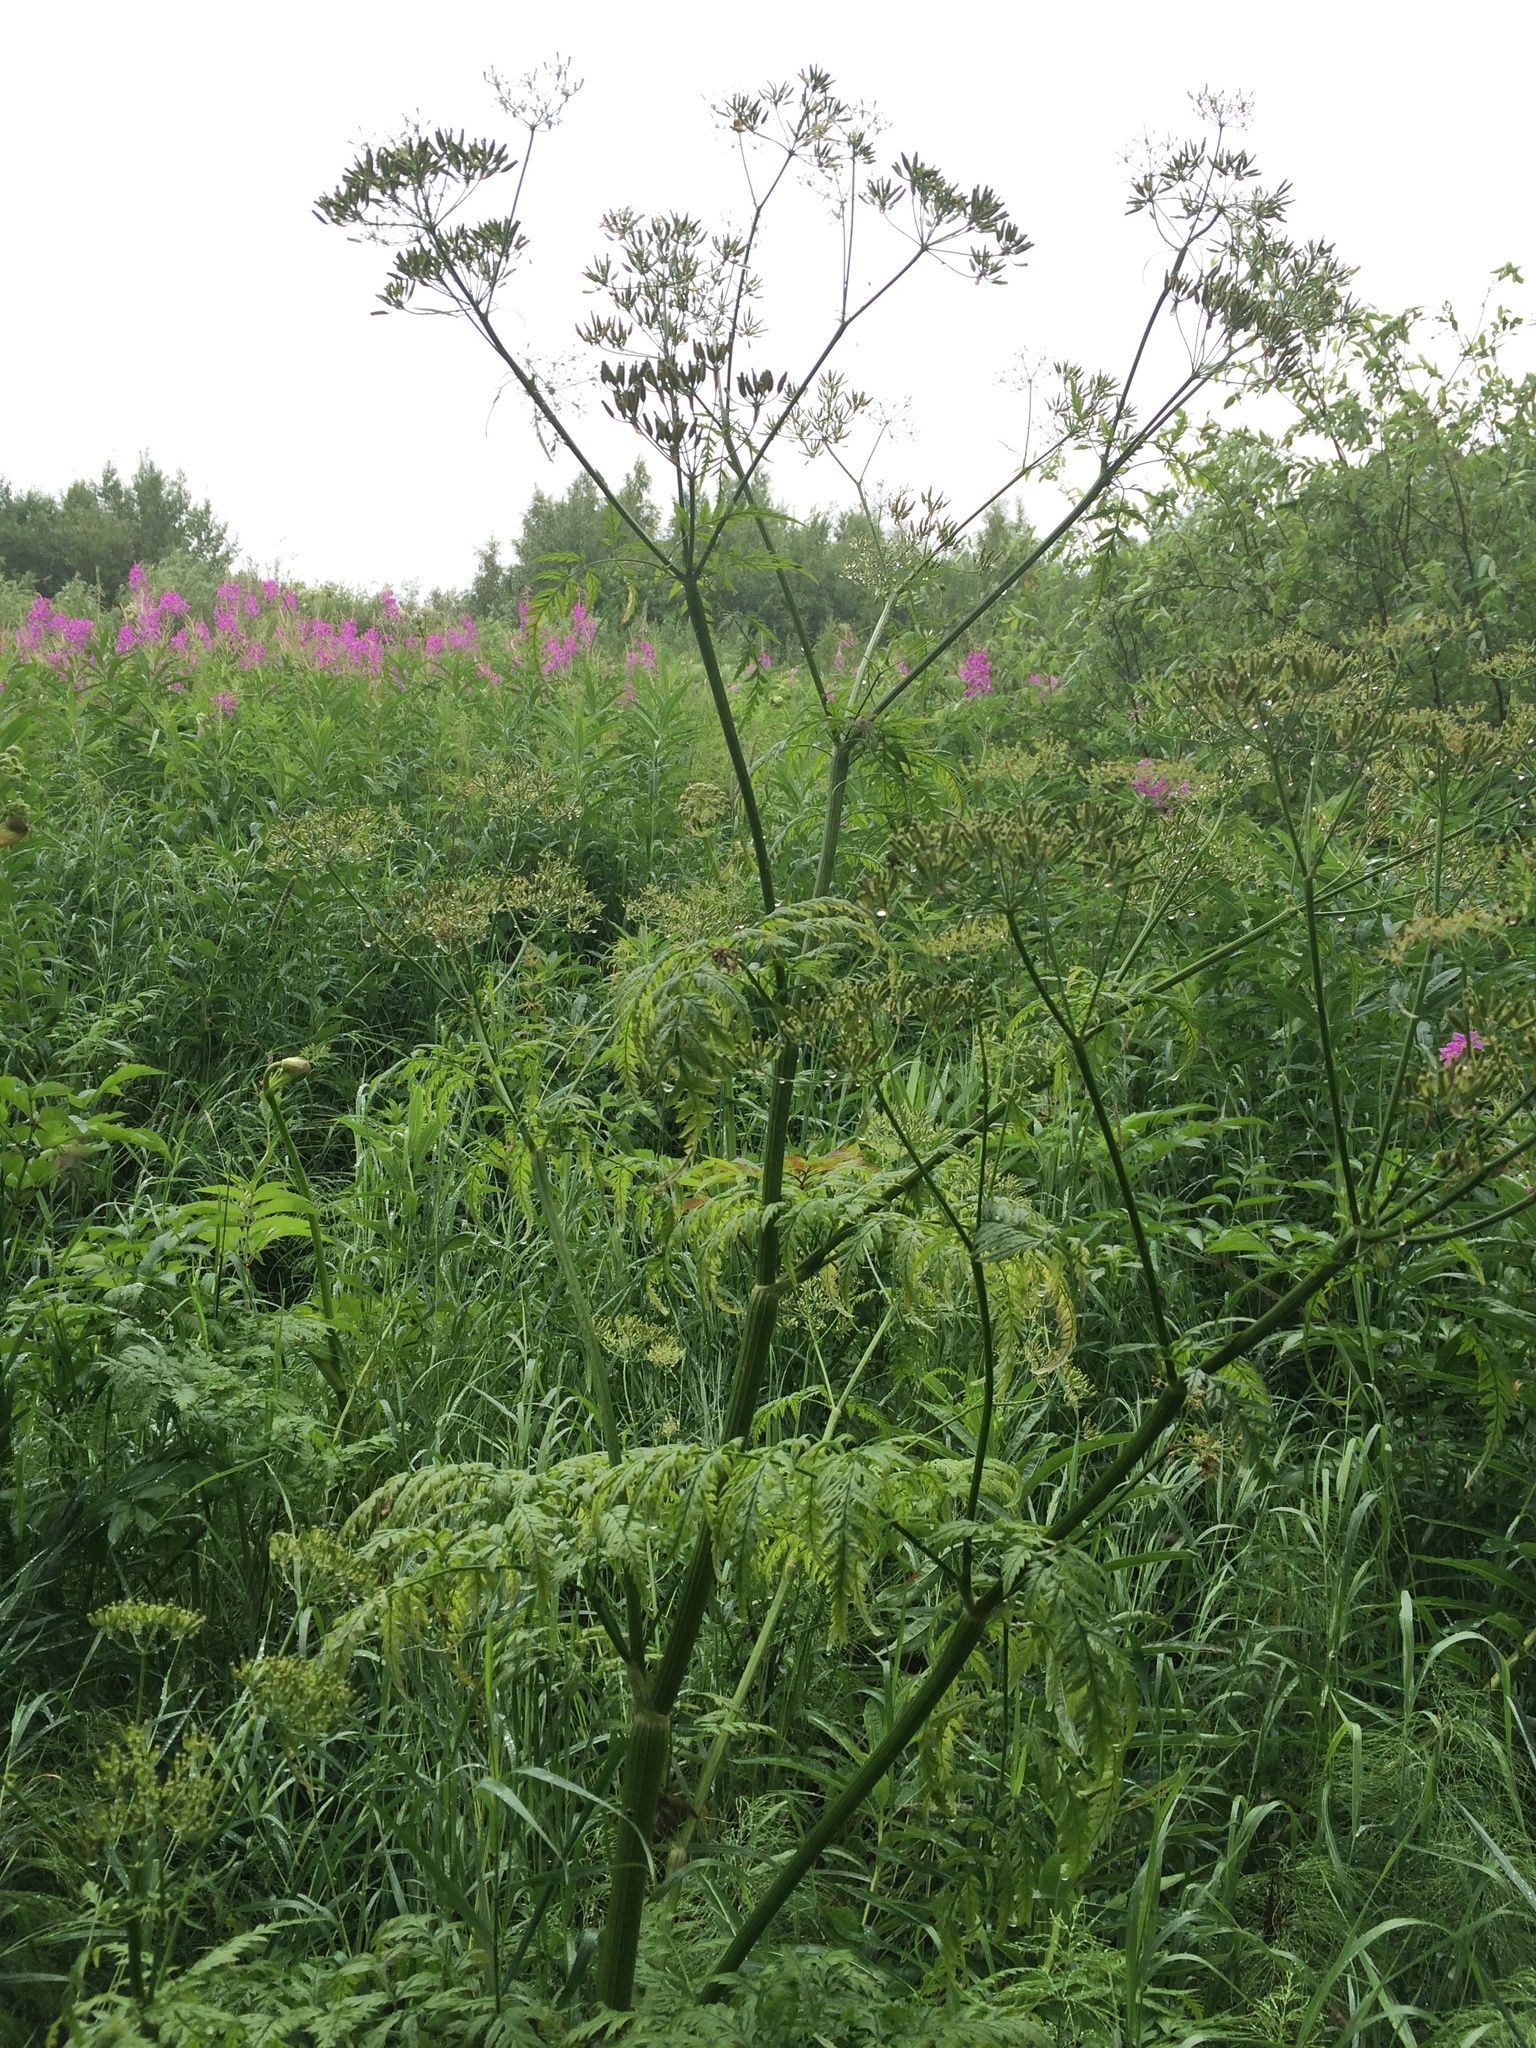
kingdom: Plantae
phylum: Tracheophyta
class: Magnoliopsida
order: Apiales
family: Apiaceae
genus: Anthriscus
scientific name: Anthriscus sylvestris
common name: Cow parsley
